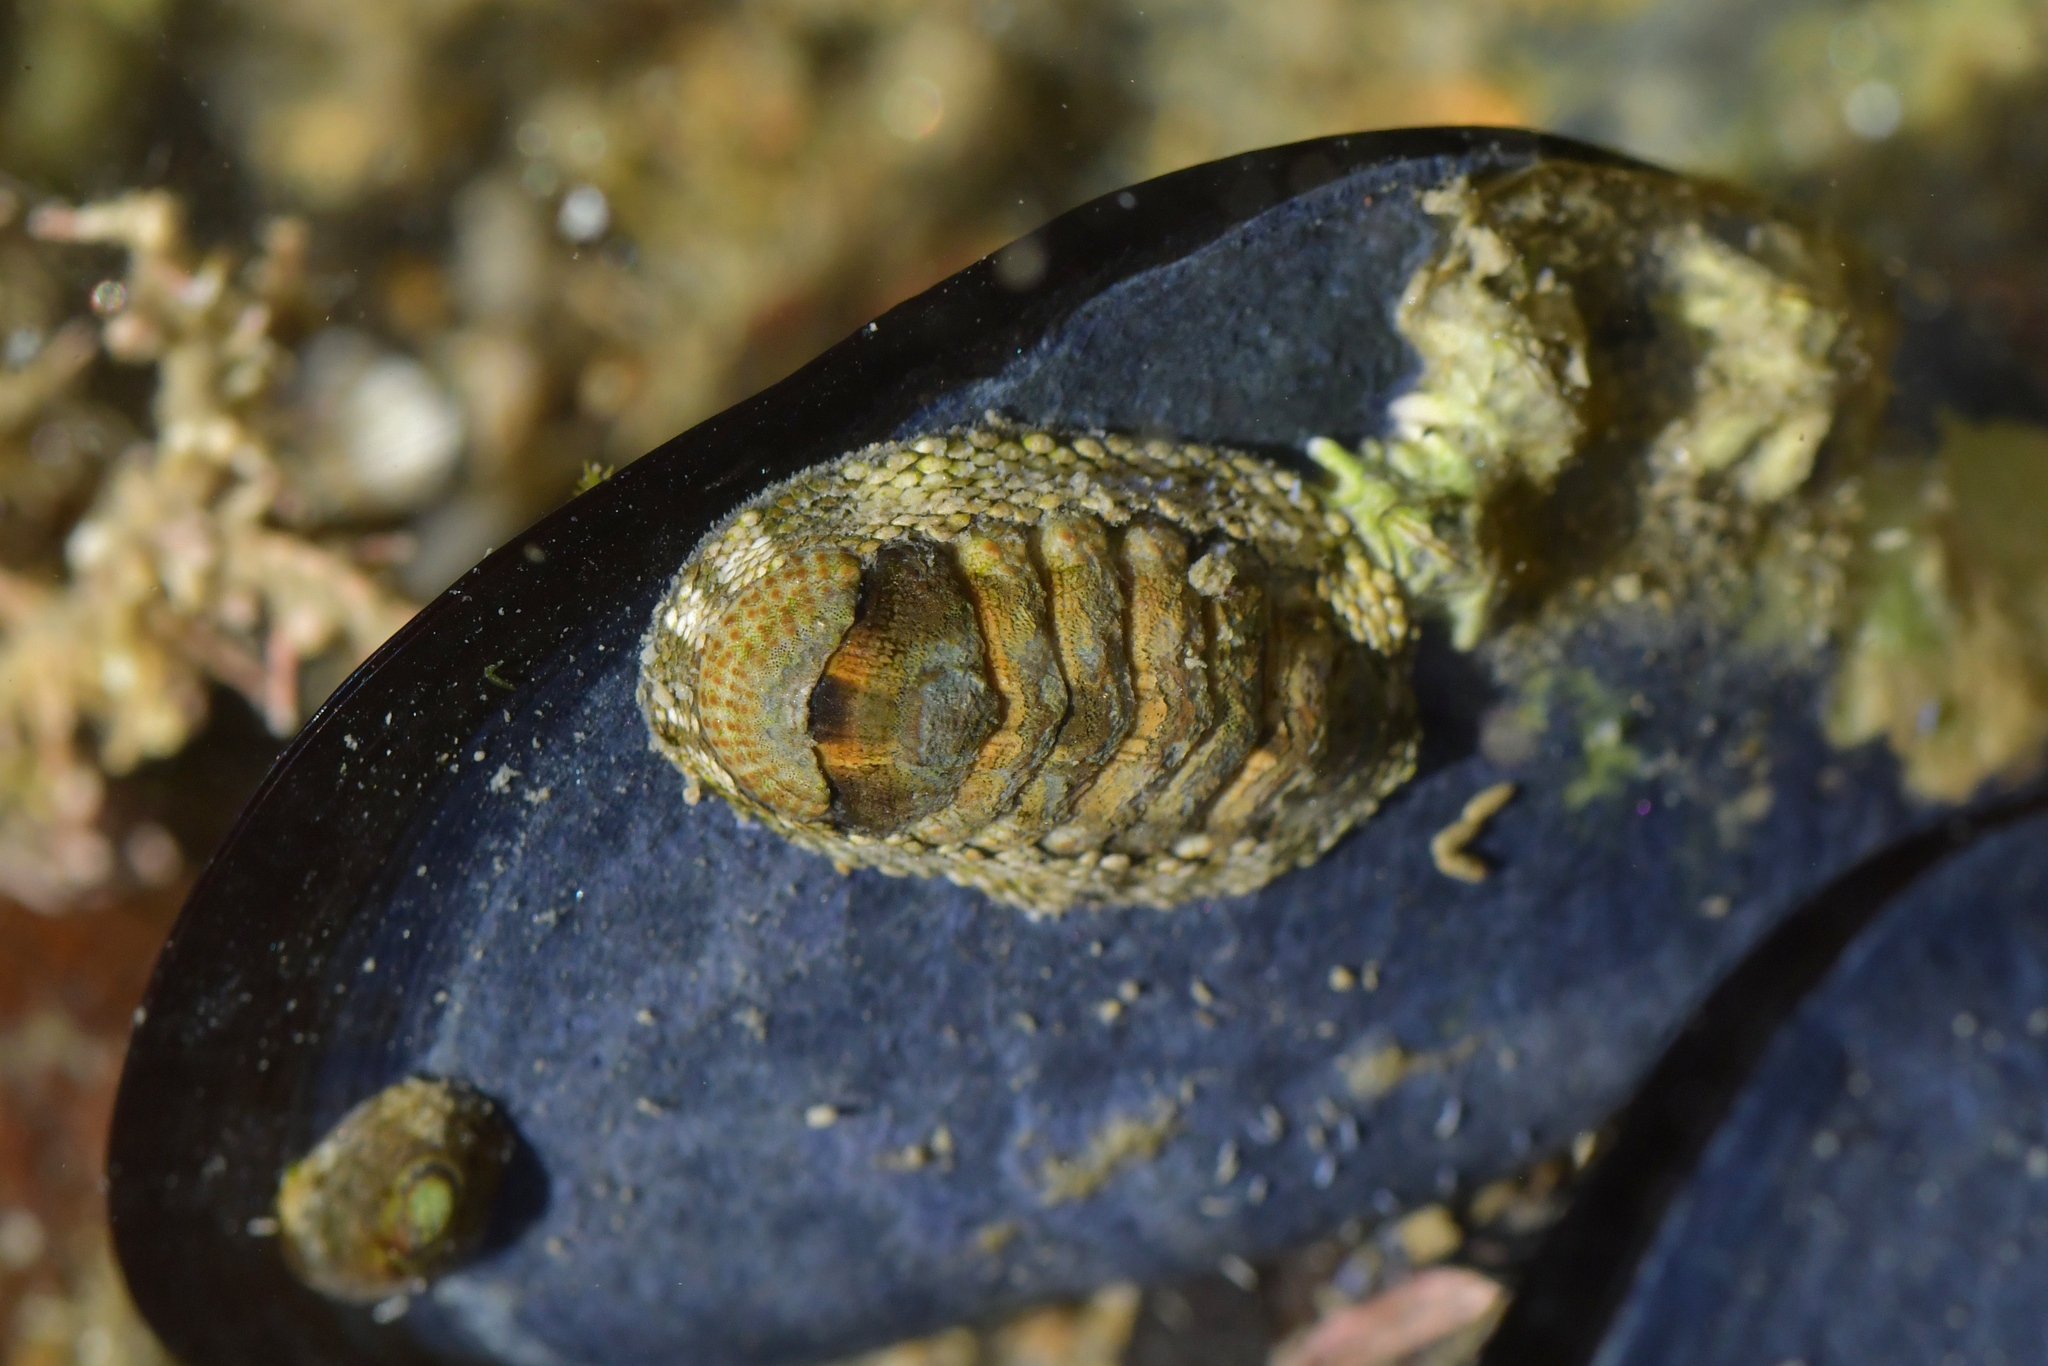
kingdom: Animalia
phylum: Mollusca
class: Polyplacophora
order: Chitonida
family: Chitonidae
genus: Sypharochiton
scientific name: Sypharochiton pelliserpentis
